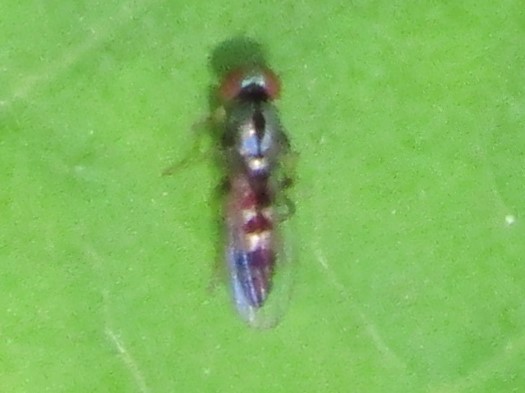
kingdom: Animalia
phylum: Arthropoda
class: Insecta
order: Diptera
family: Platypezidae
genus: Bertamyia
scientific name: Bertamyia notata
